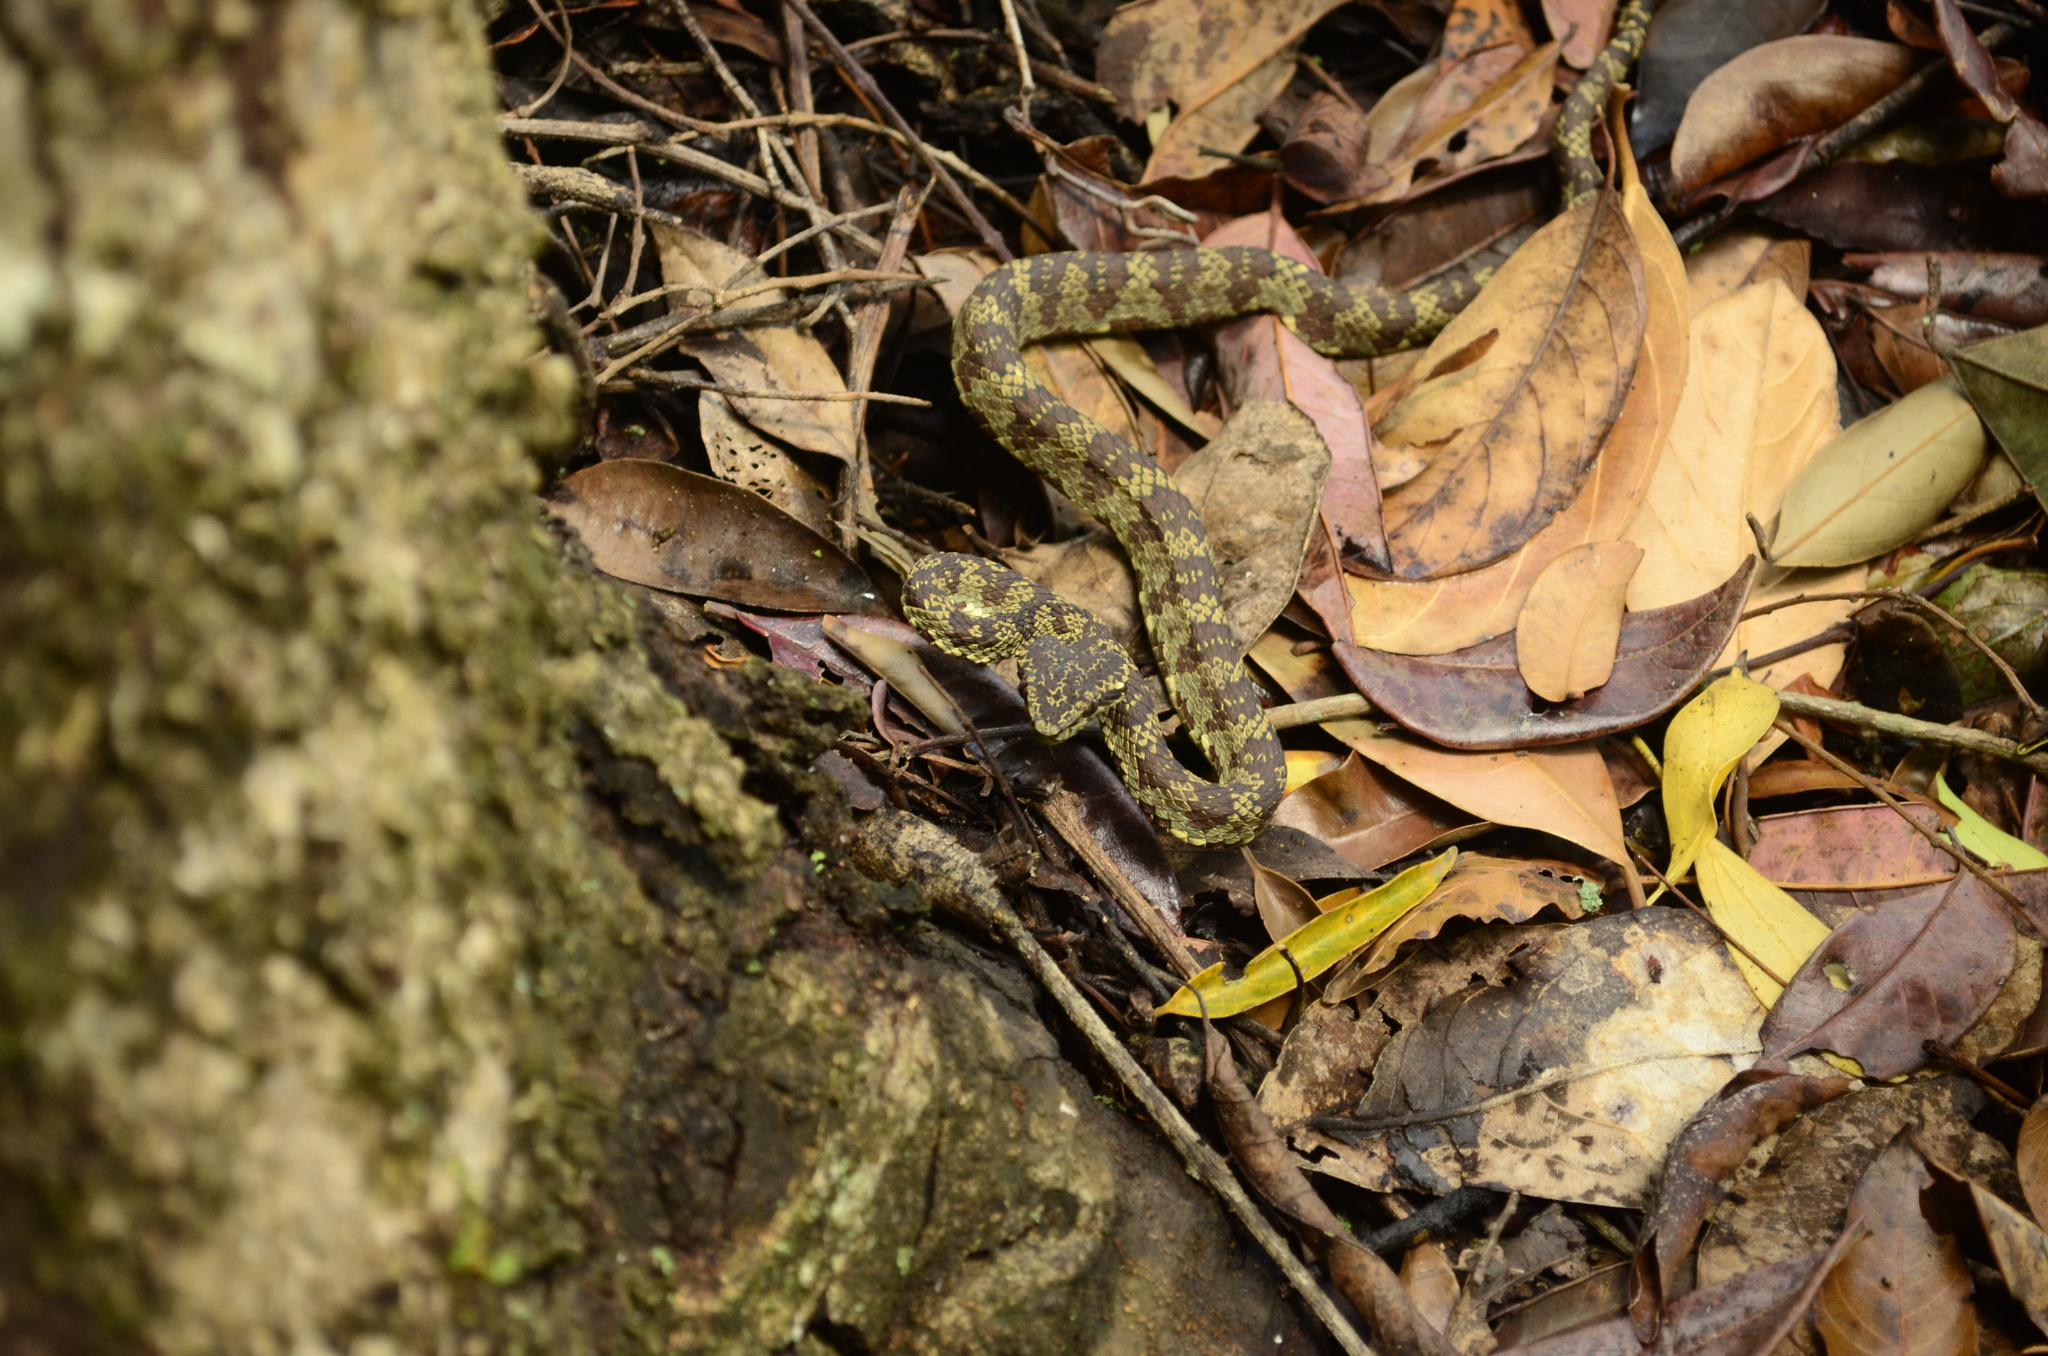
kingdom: Animalia
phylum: Chordata
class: Squamata
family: Viperidae
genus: Craspedocephalus
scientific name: Craspedocephalus travancoricus
